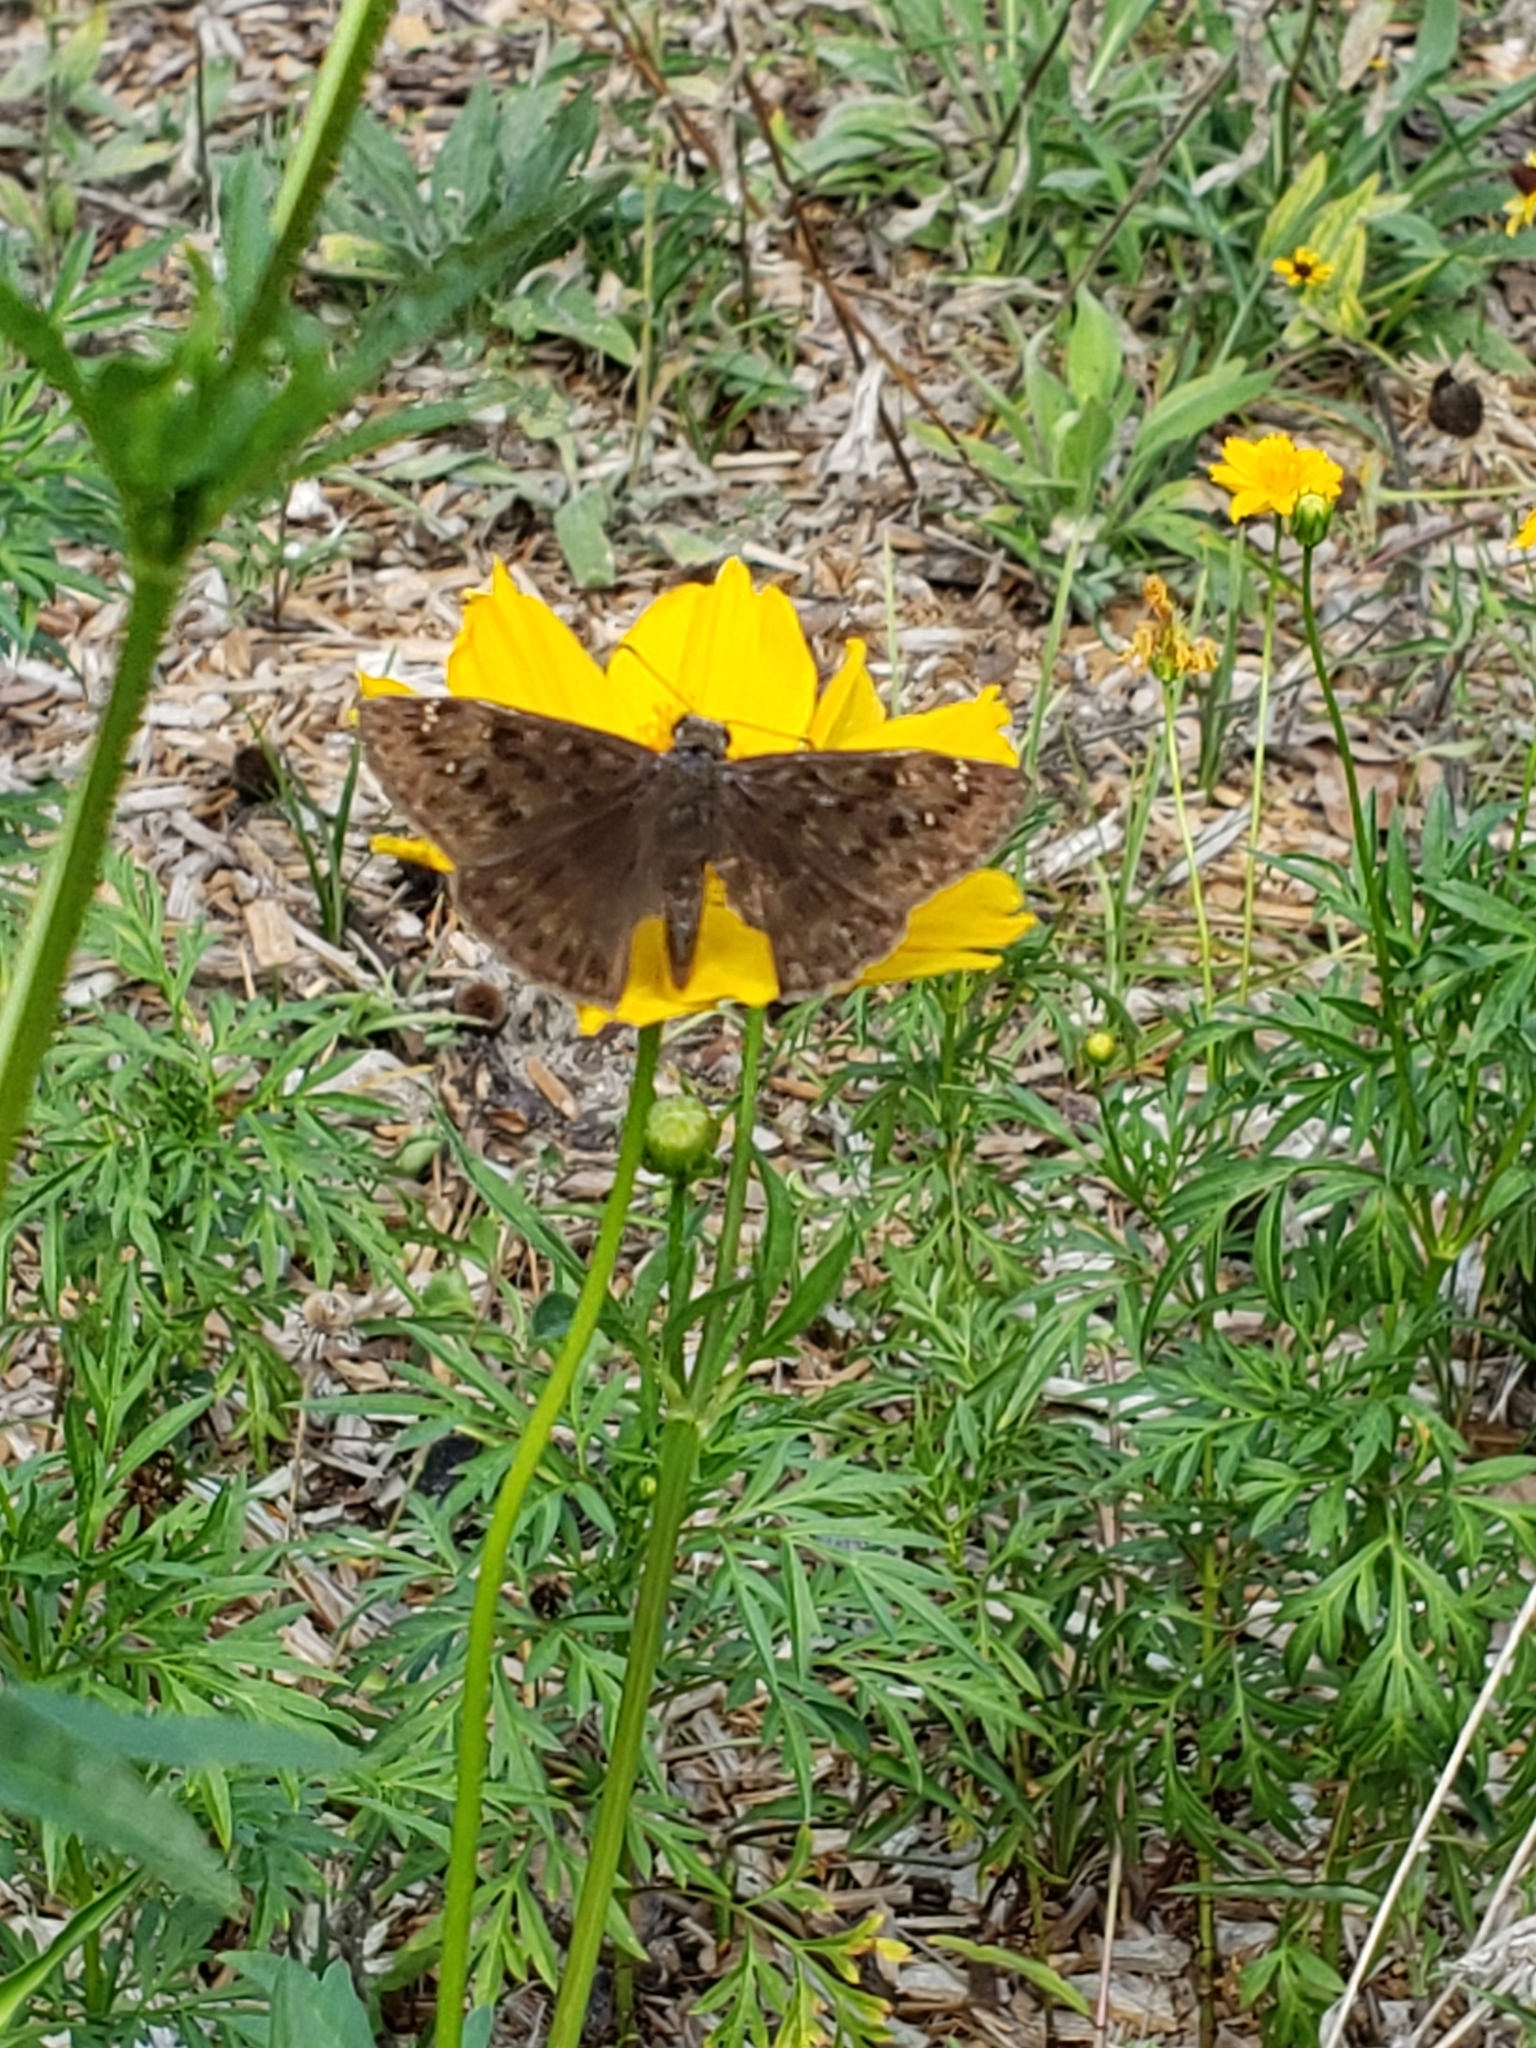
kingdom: Animalia
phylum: Arthropoda
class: Insecta
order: Lepidoptera
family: Hesperiidae
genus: Erynnis
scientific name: Erynnis horatius
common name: Horace's duskywing
